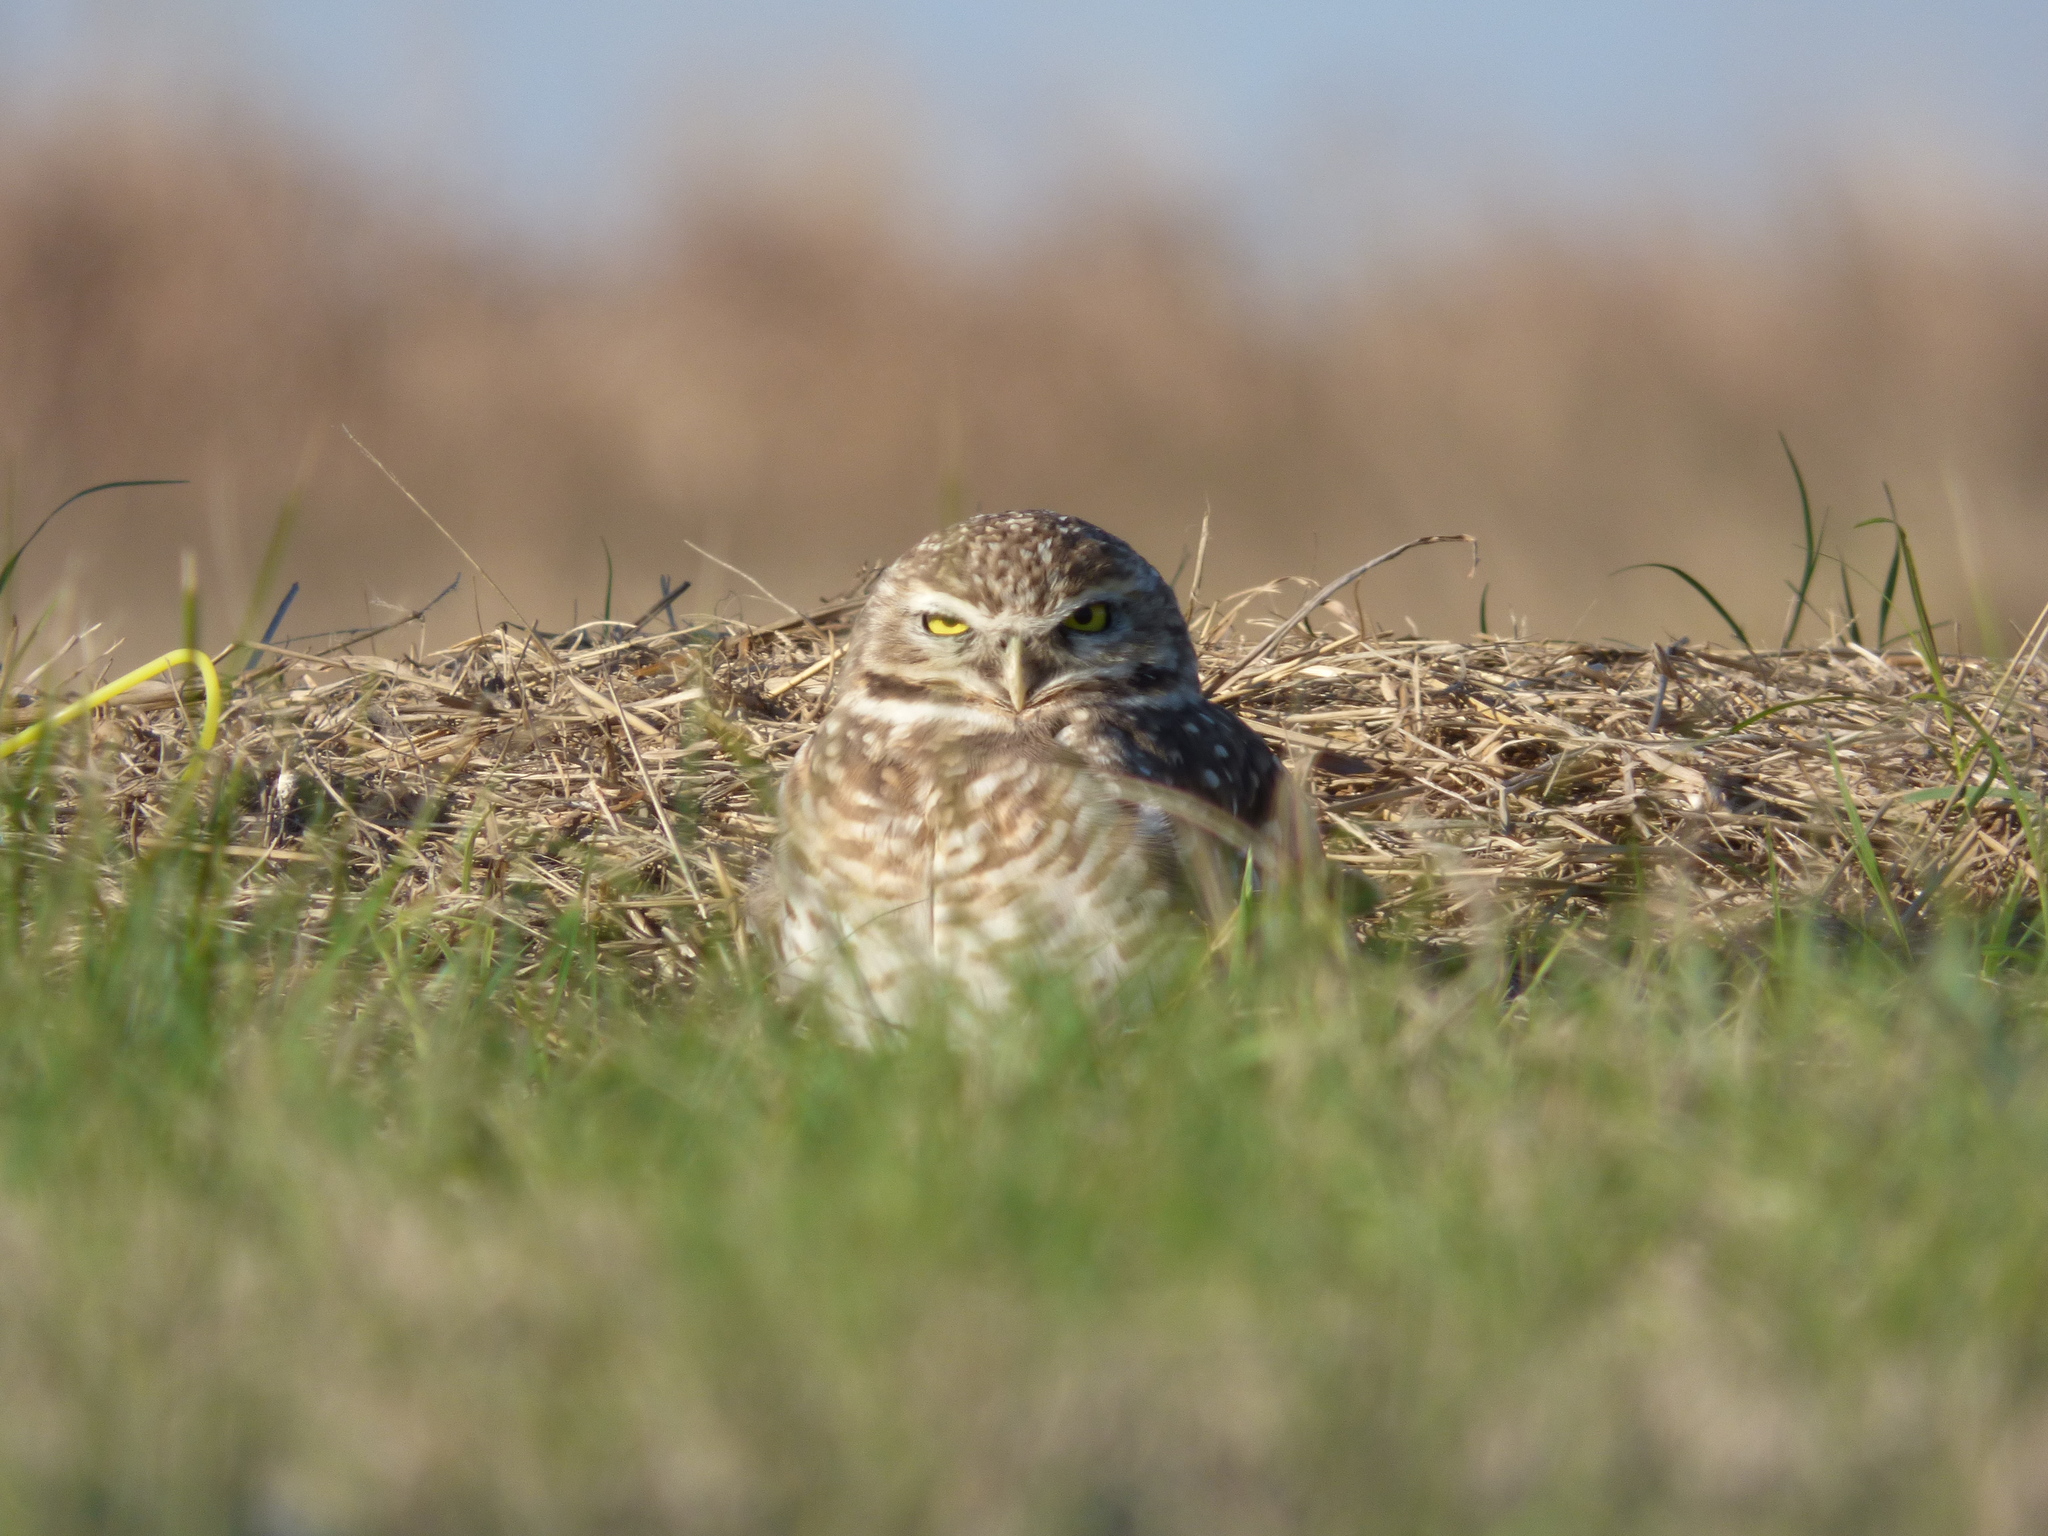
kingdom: Animalia
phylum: Chordata
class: Aves
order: Strigiformes
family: Strigidae
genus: Athene
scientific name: Athene cunicularia
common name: Burrowing owl
